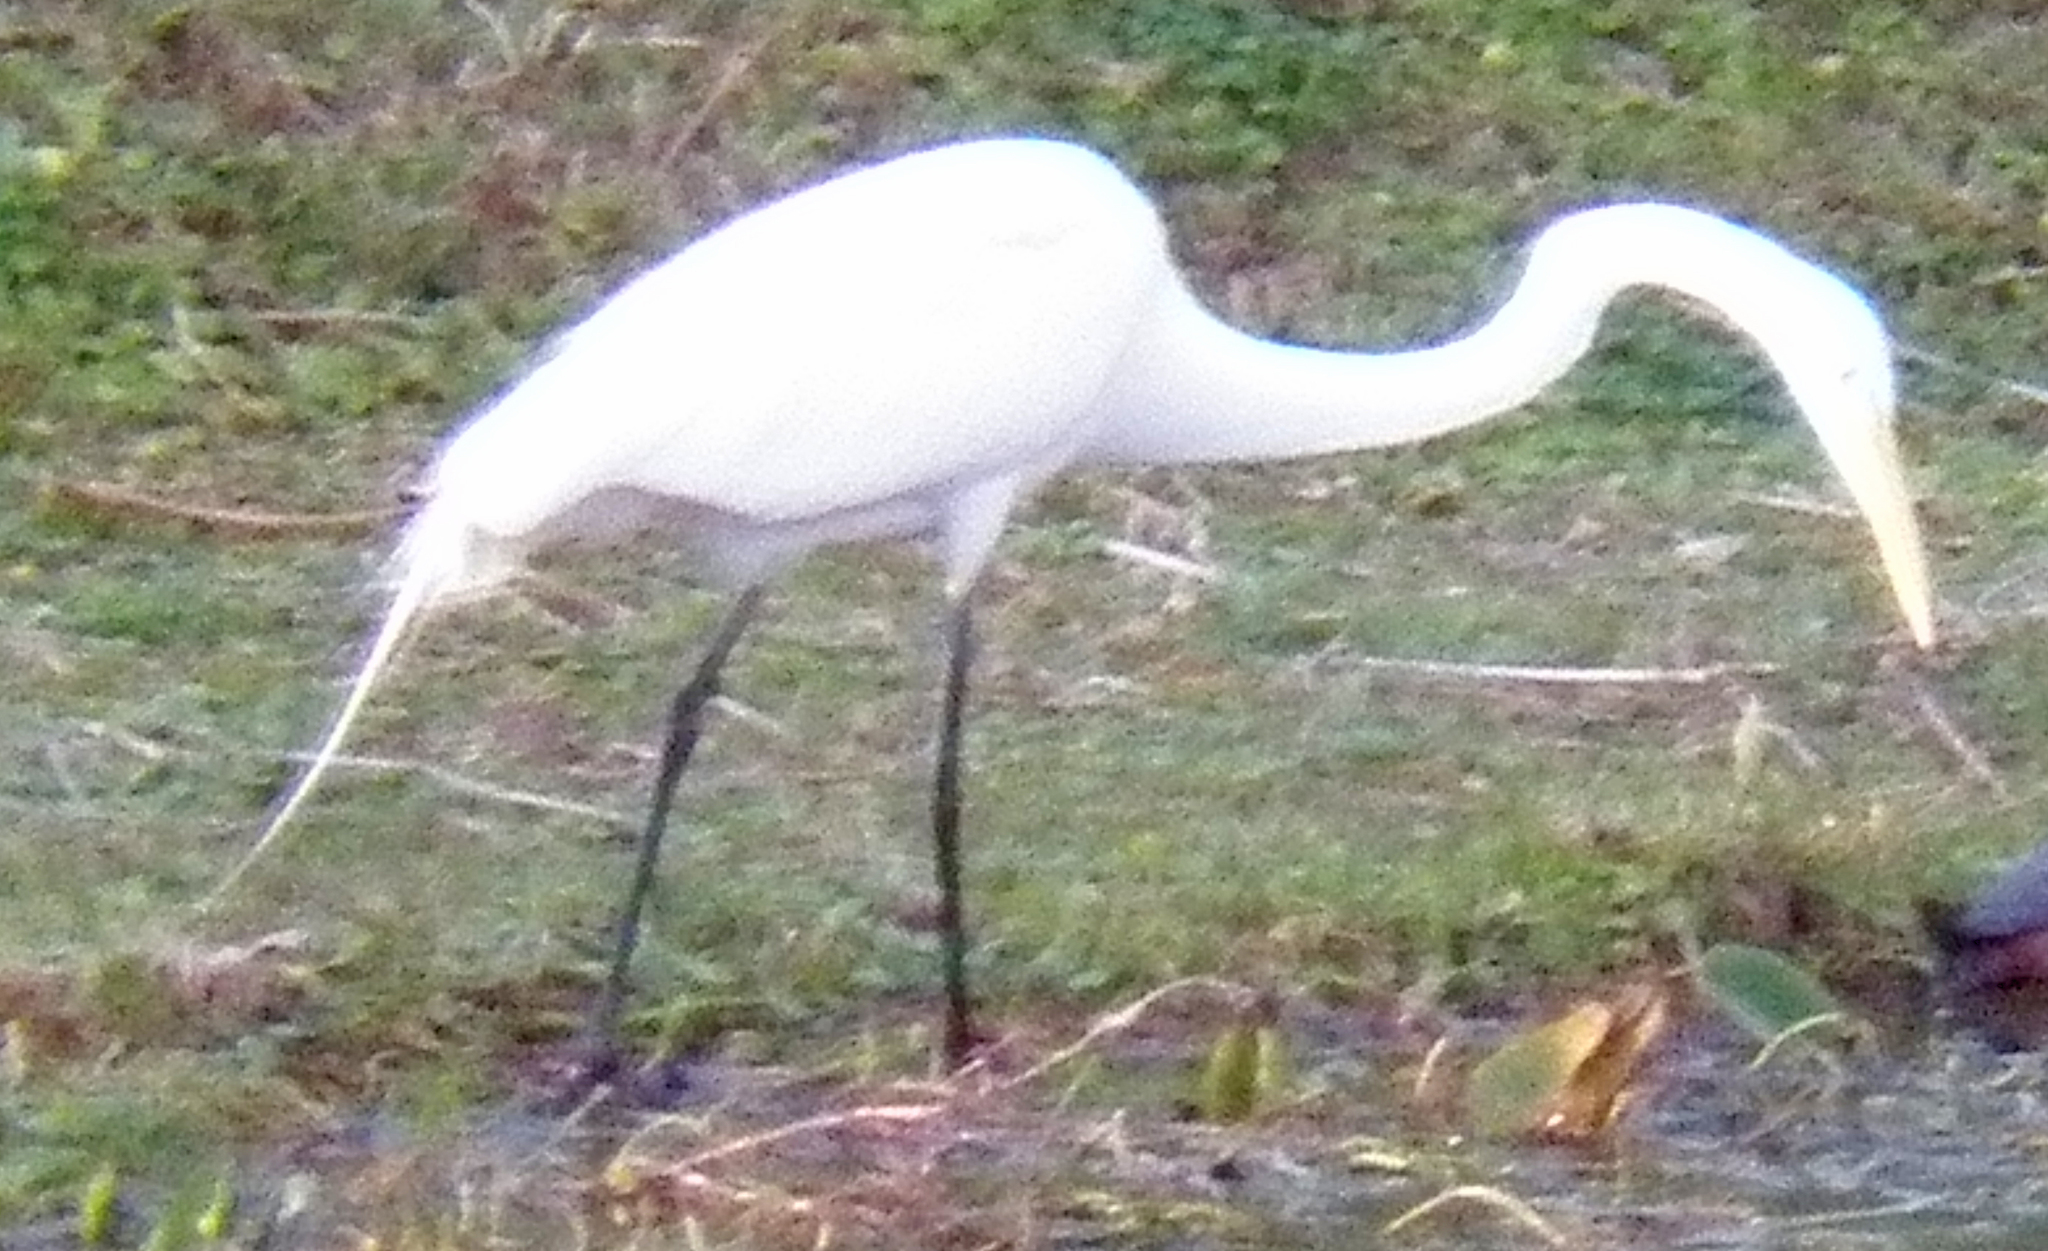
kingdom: Animalia
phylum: Chordata
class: Aves
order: Pelecaniformes
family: Ardeidae
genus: Ardea
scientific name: Ardea alba
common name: Great egret
